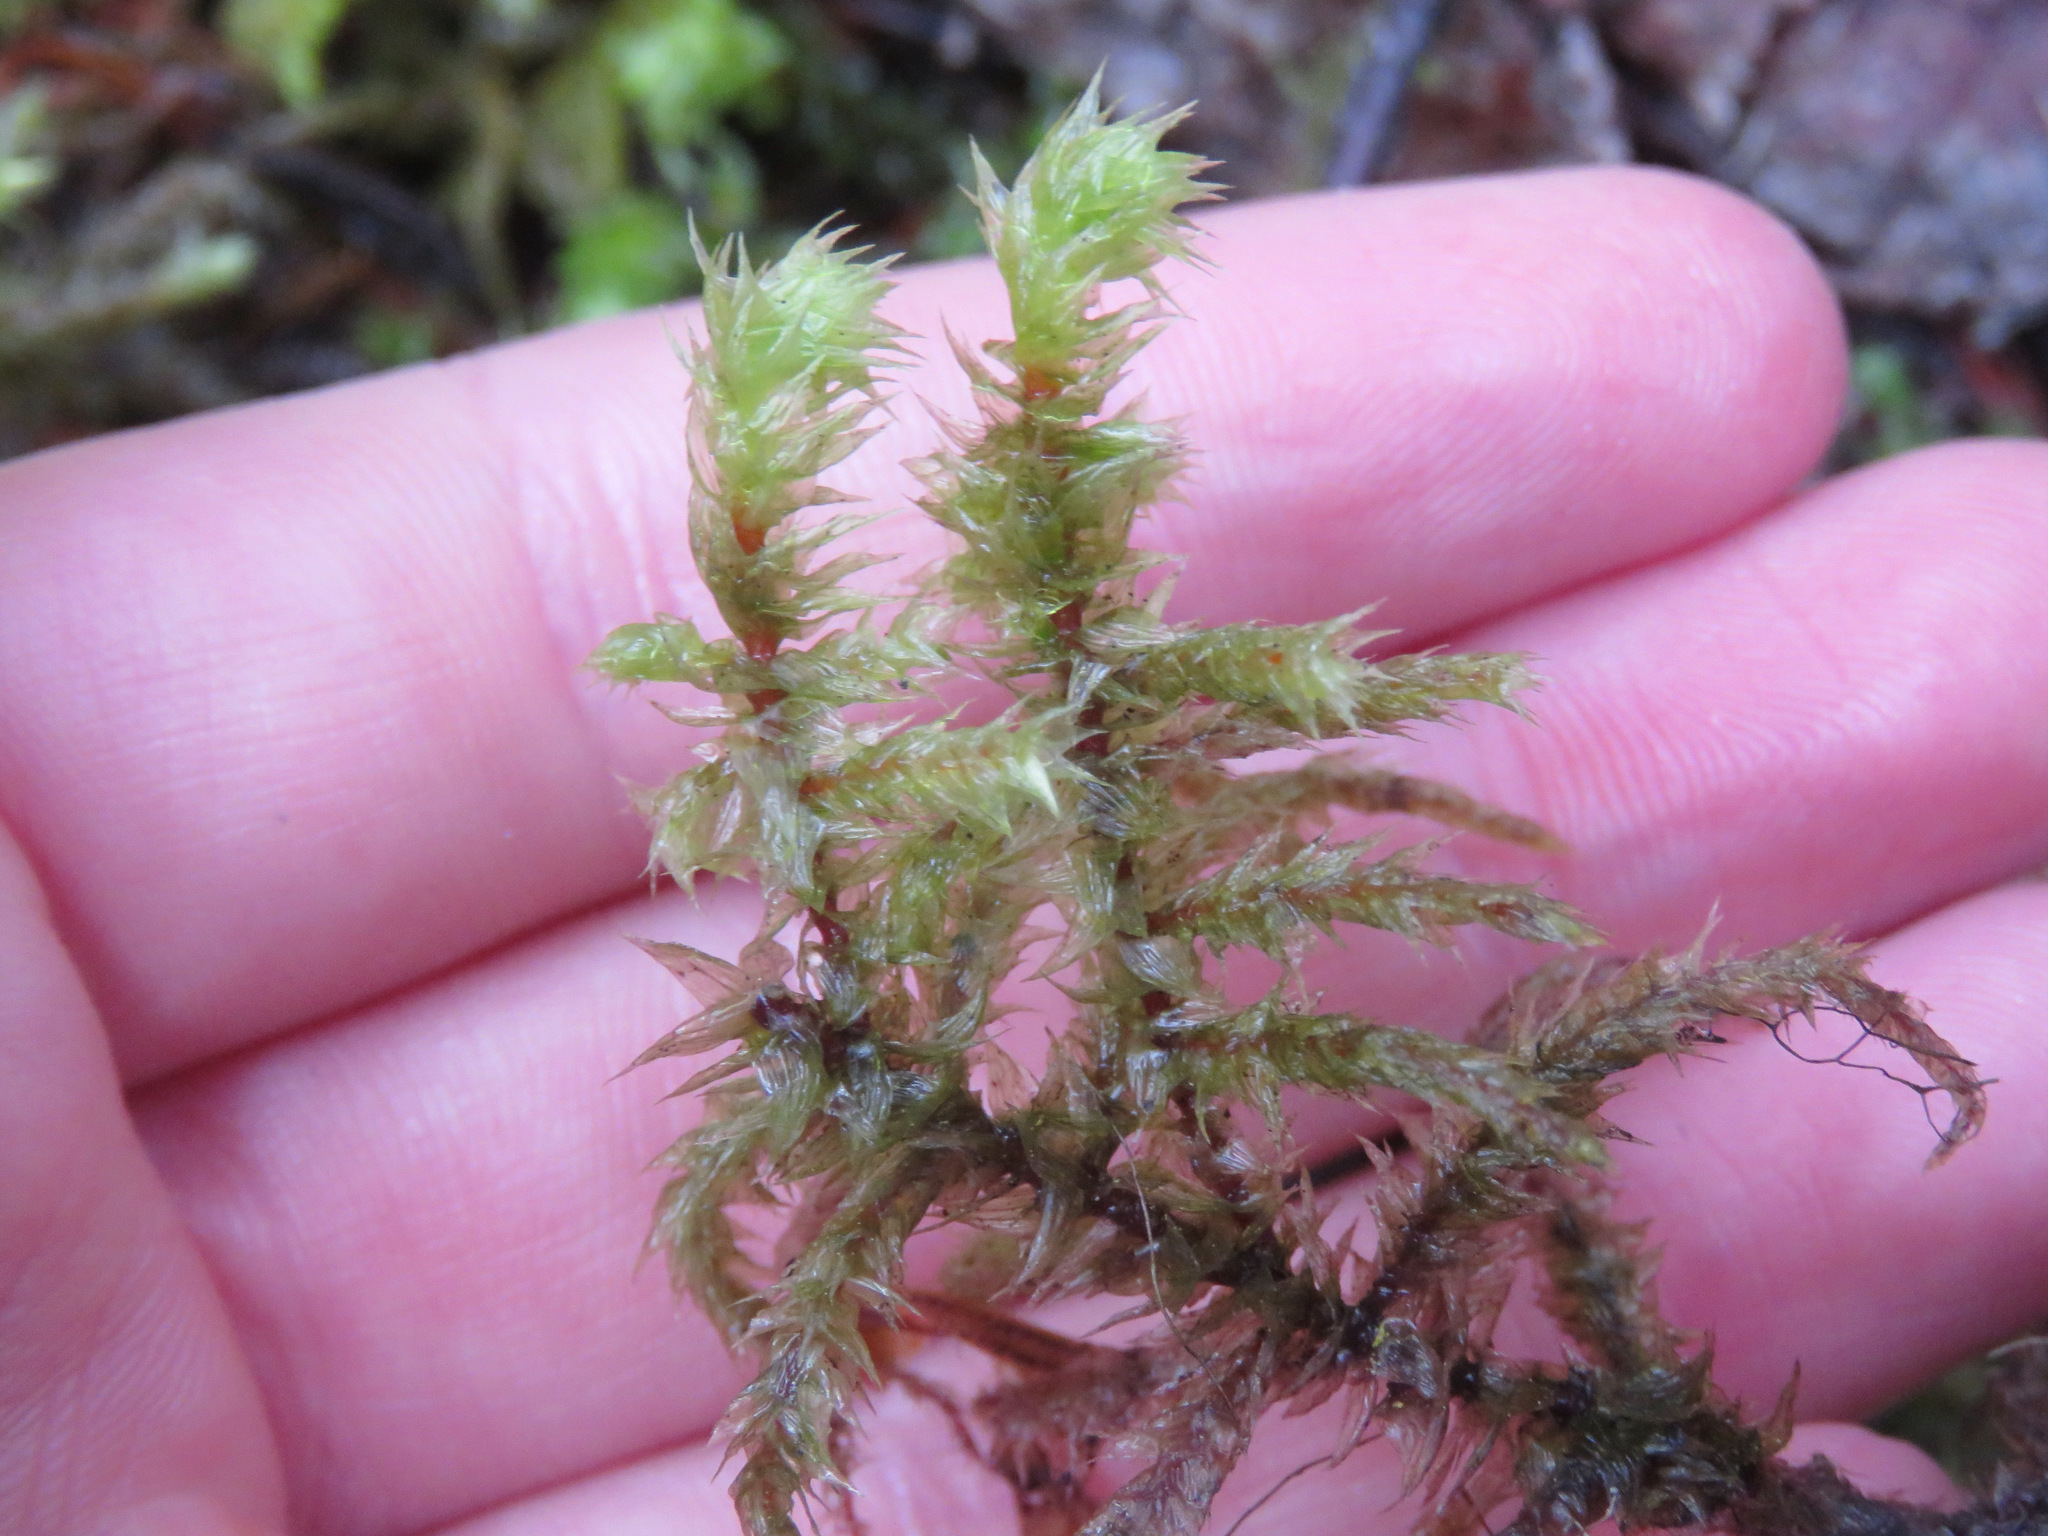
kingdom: Plantae
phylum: Bryophyta
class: Bryopsida
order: Hypnales
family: Hylocomiaceae
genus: Hylocomiadelphus
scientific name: Hylocomiadelphus triquetrus
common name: Rough goose neck moss
